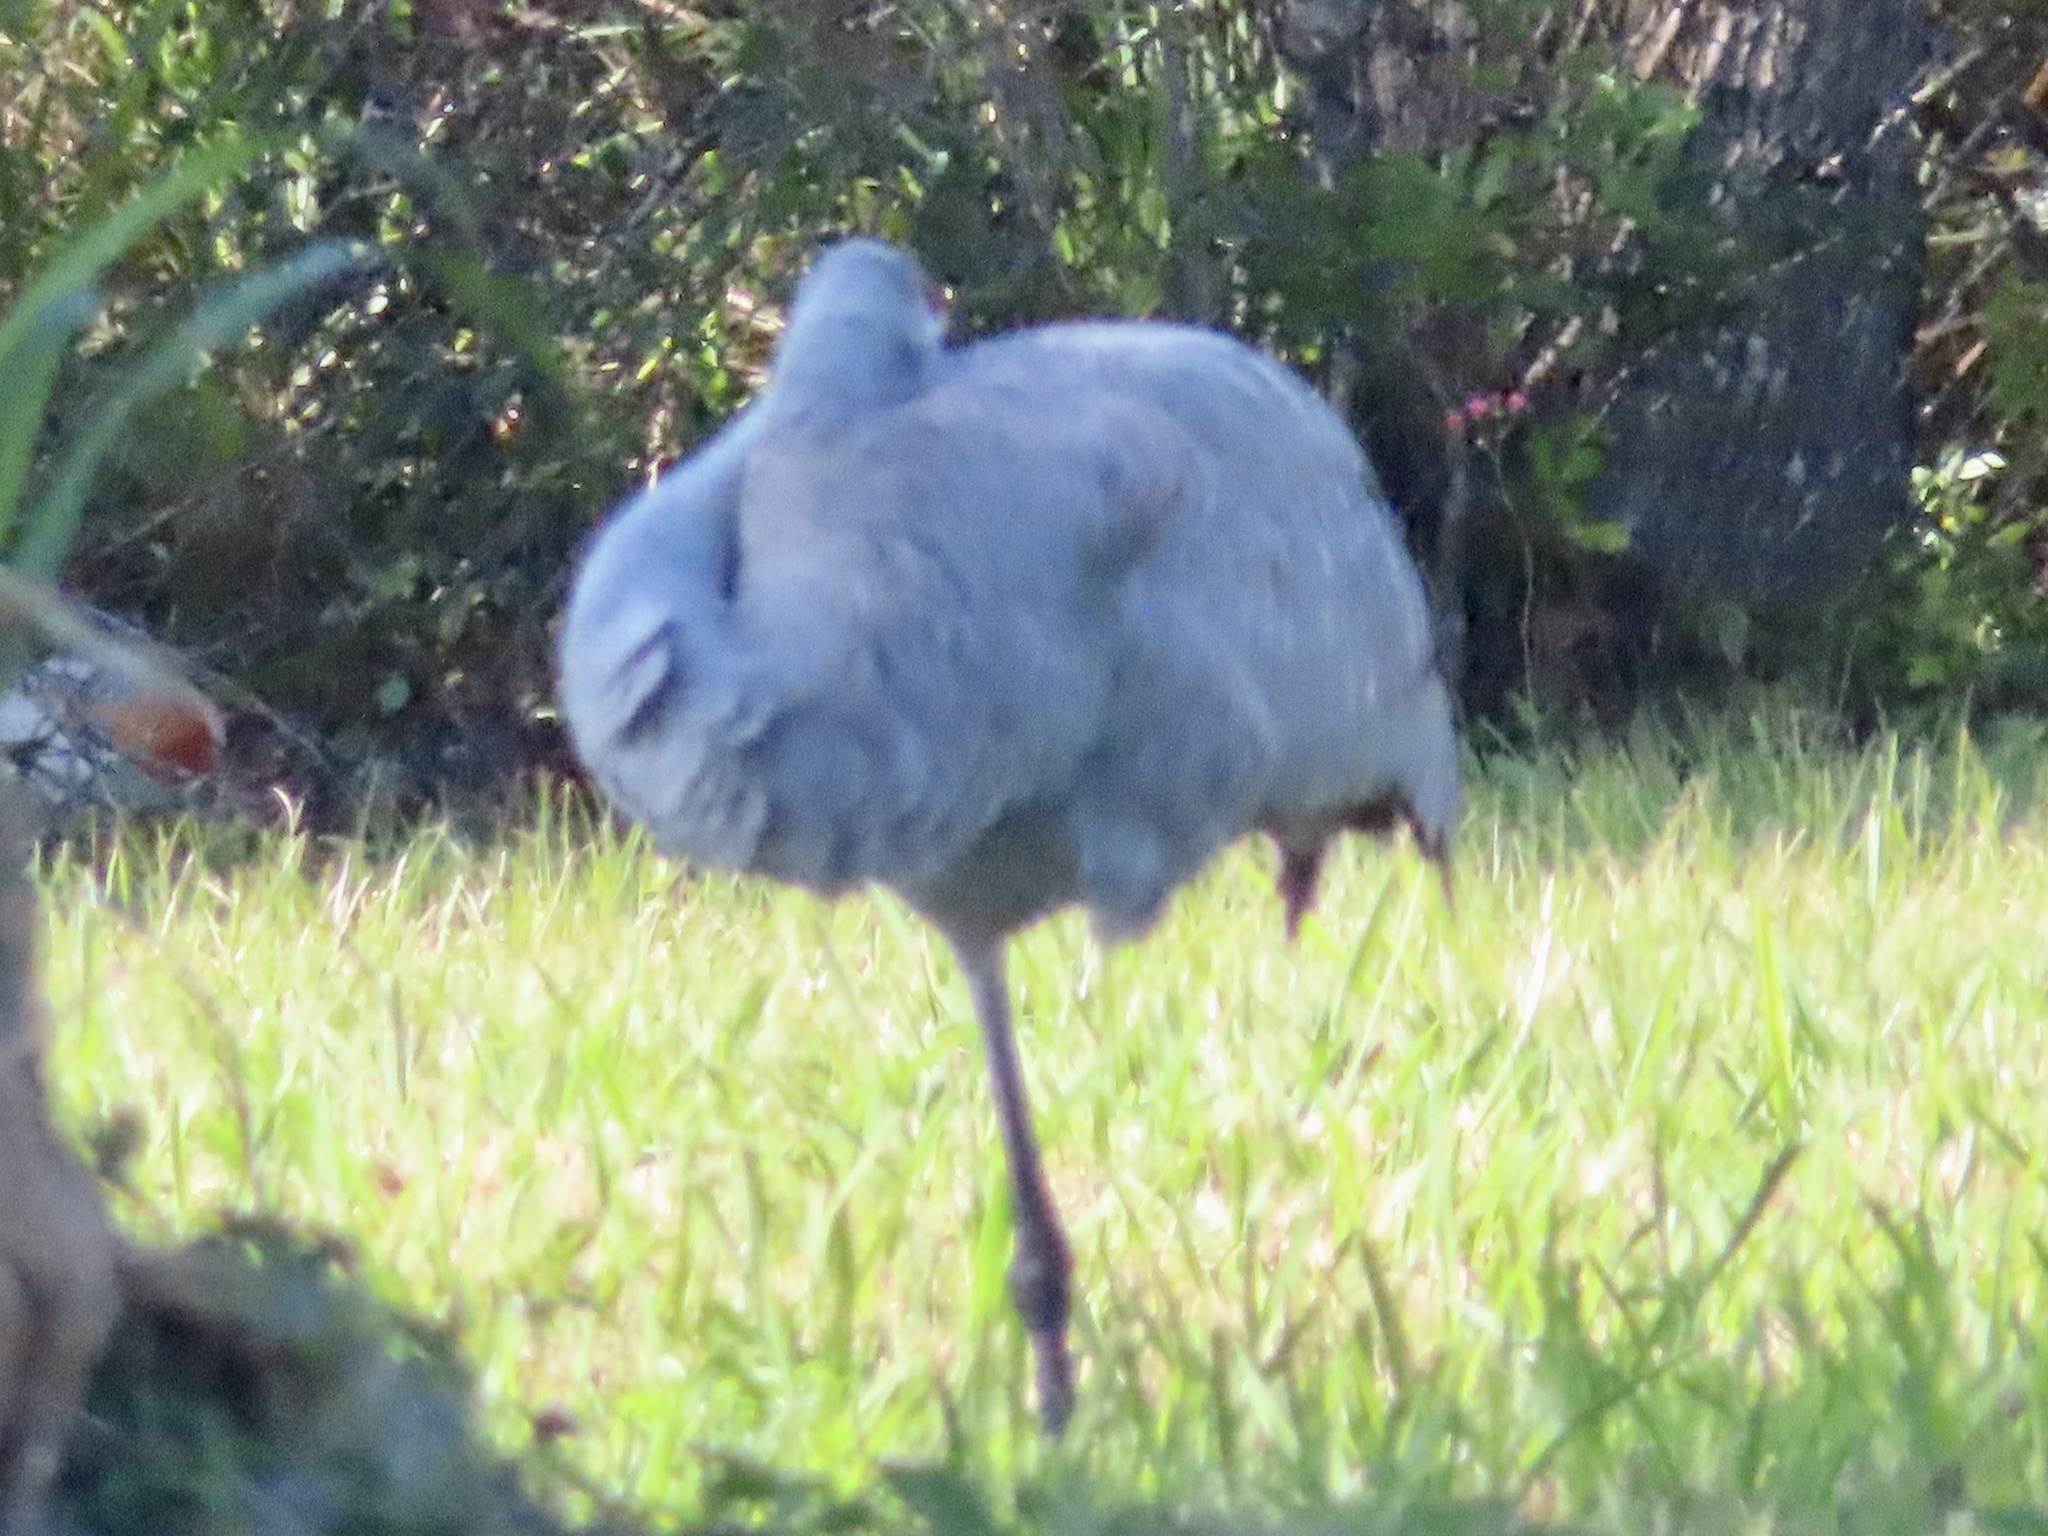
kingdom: Animalia
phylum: Chordata
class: Aves
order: Gruiformes
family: Gruidae
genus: Grus
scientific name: Grus canadensis
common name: Sandhill crane
